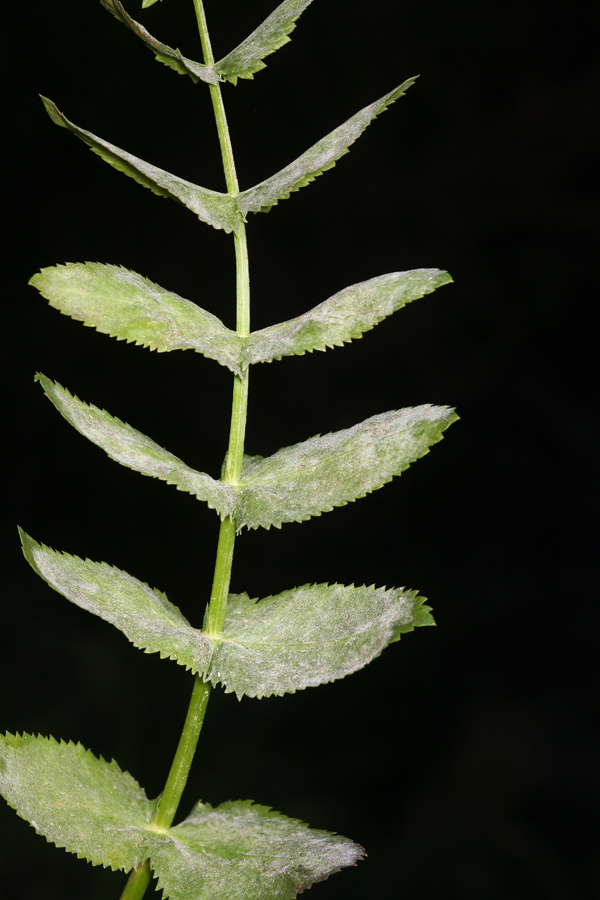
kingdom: Plantae
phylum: Tracheophyta
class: Magnoliopsida
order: Apiales
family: Apiaceae
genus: Berula
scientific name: Berula erecta
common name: Lesser water-parsnip
